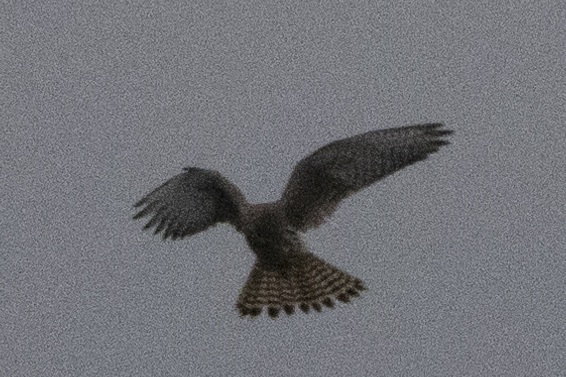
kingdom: Animalia
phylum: Chordata
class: Aves
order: Falconiformes
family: Falconidae
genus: Falco
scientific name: Falco tinnunculus
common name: Common kestrel
